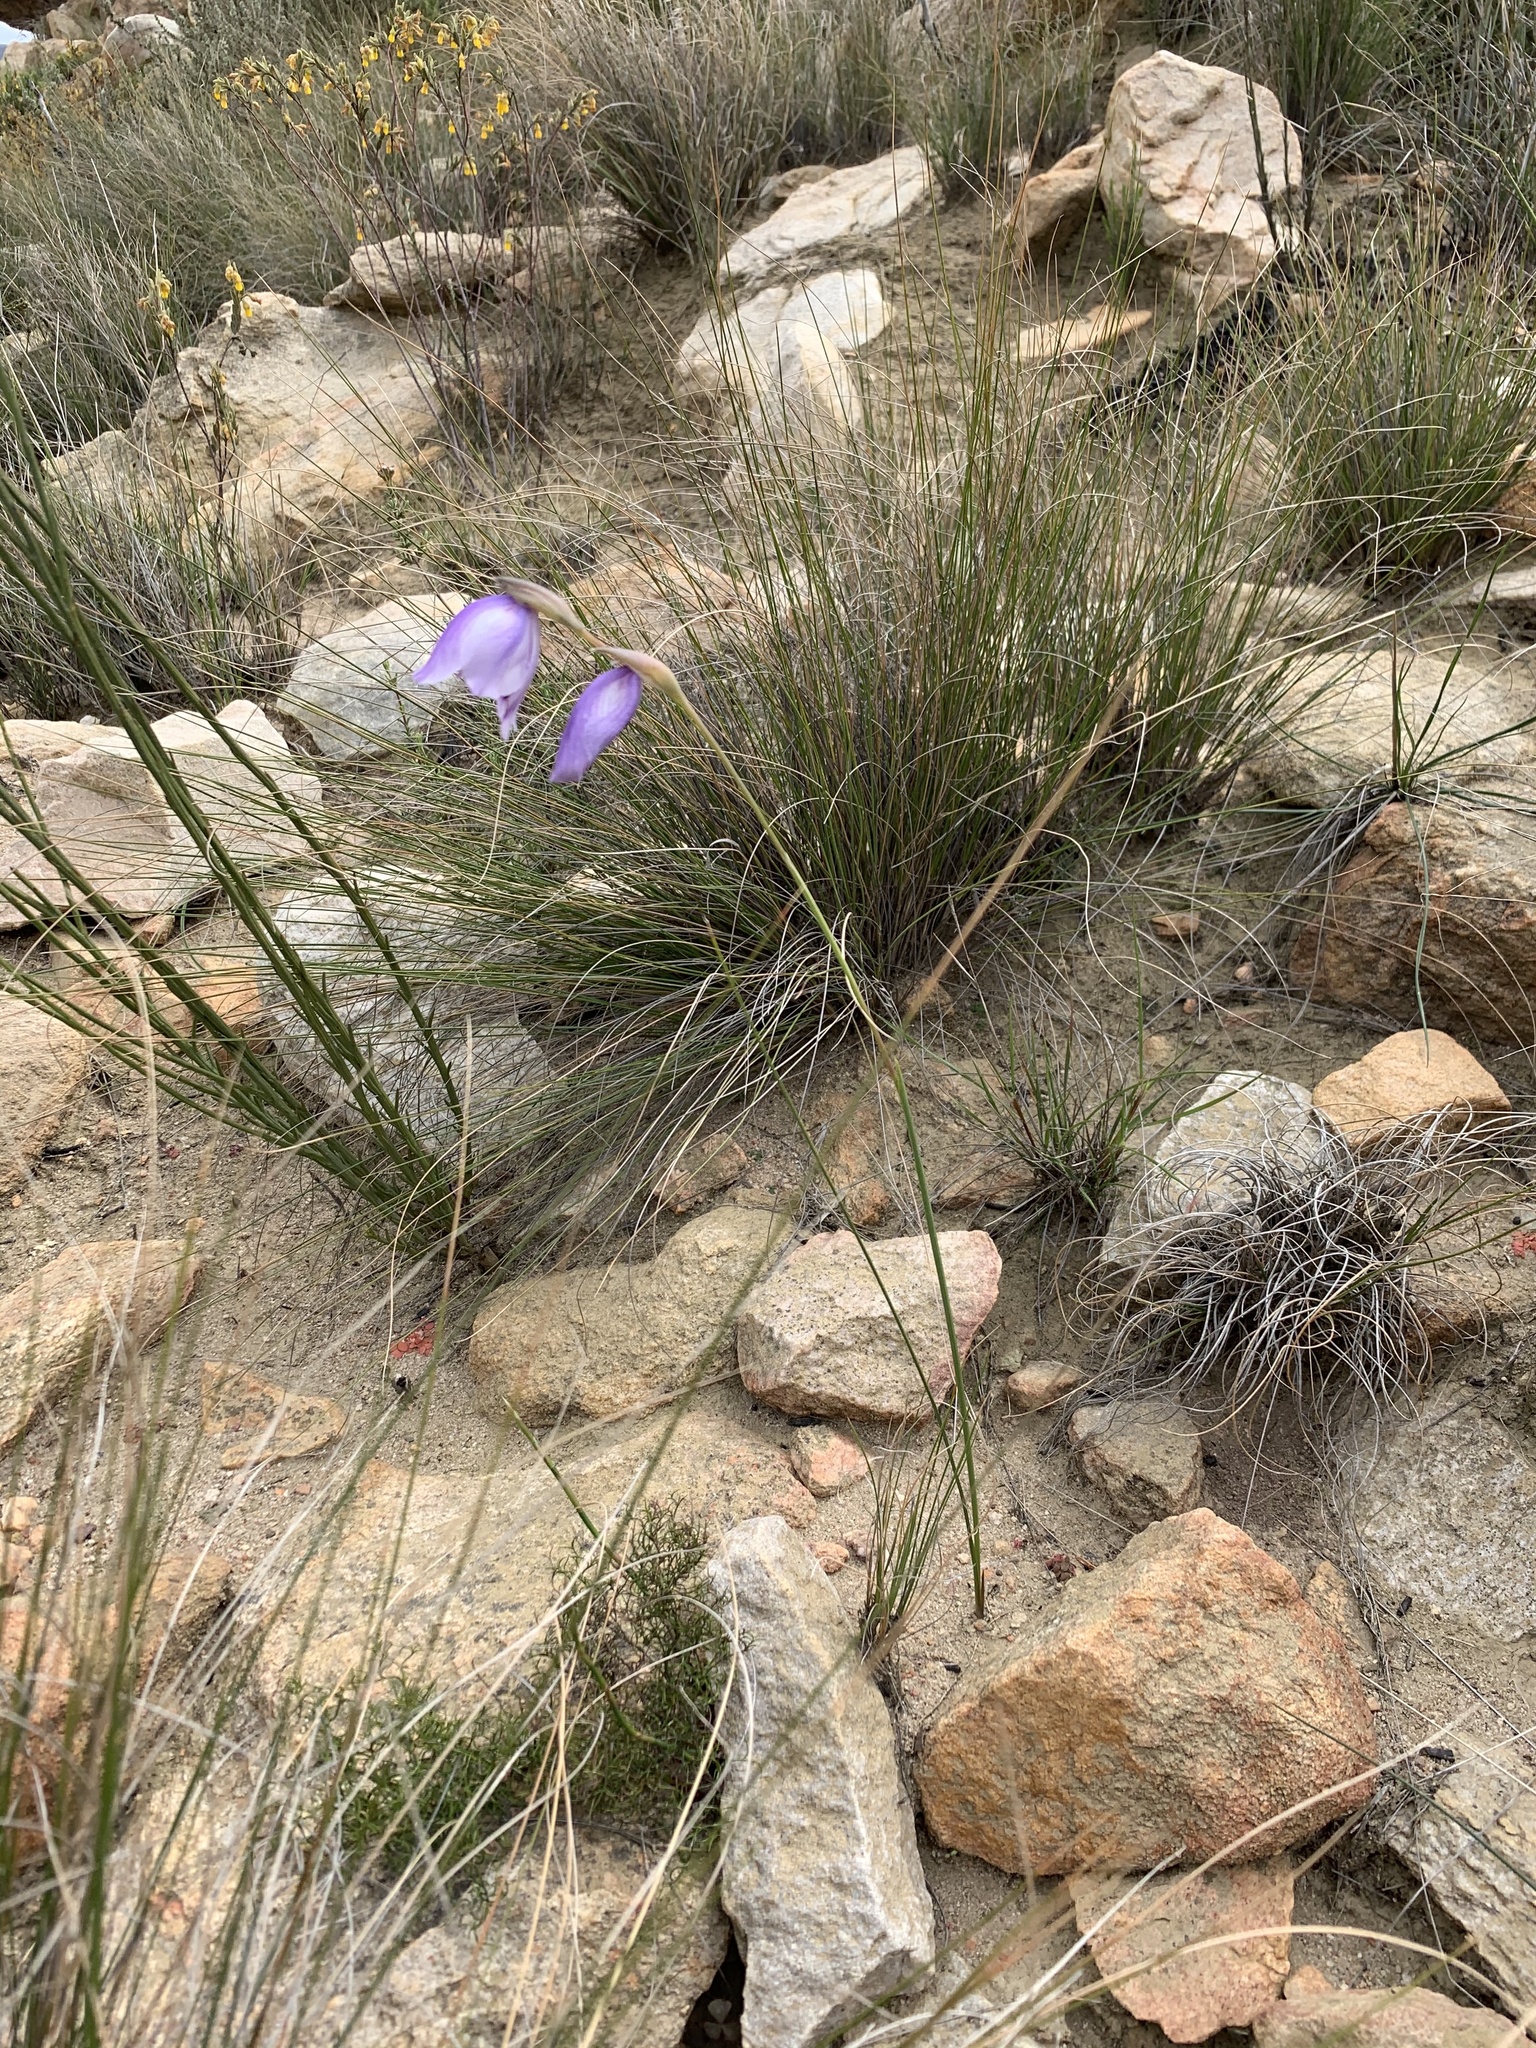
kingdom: Plantae
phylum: Tracheophyta
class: Liliopsida
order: Asparagales
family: Iridaceae
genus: Gladiolus
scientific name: Gladiolus rogersii
